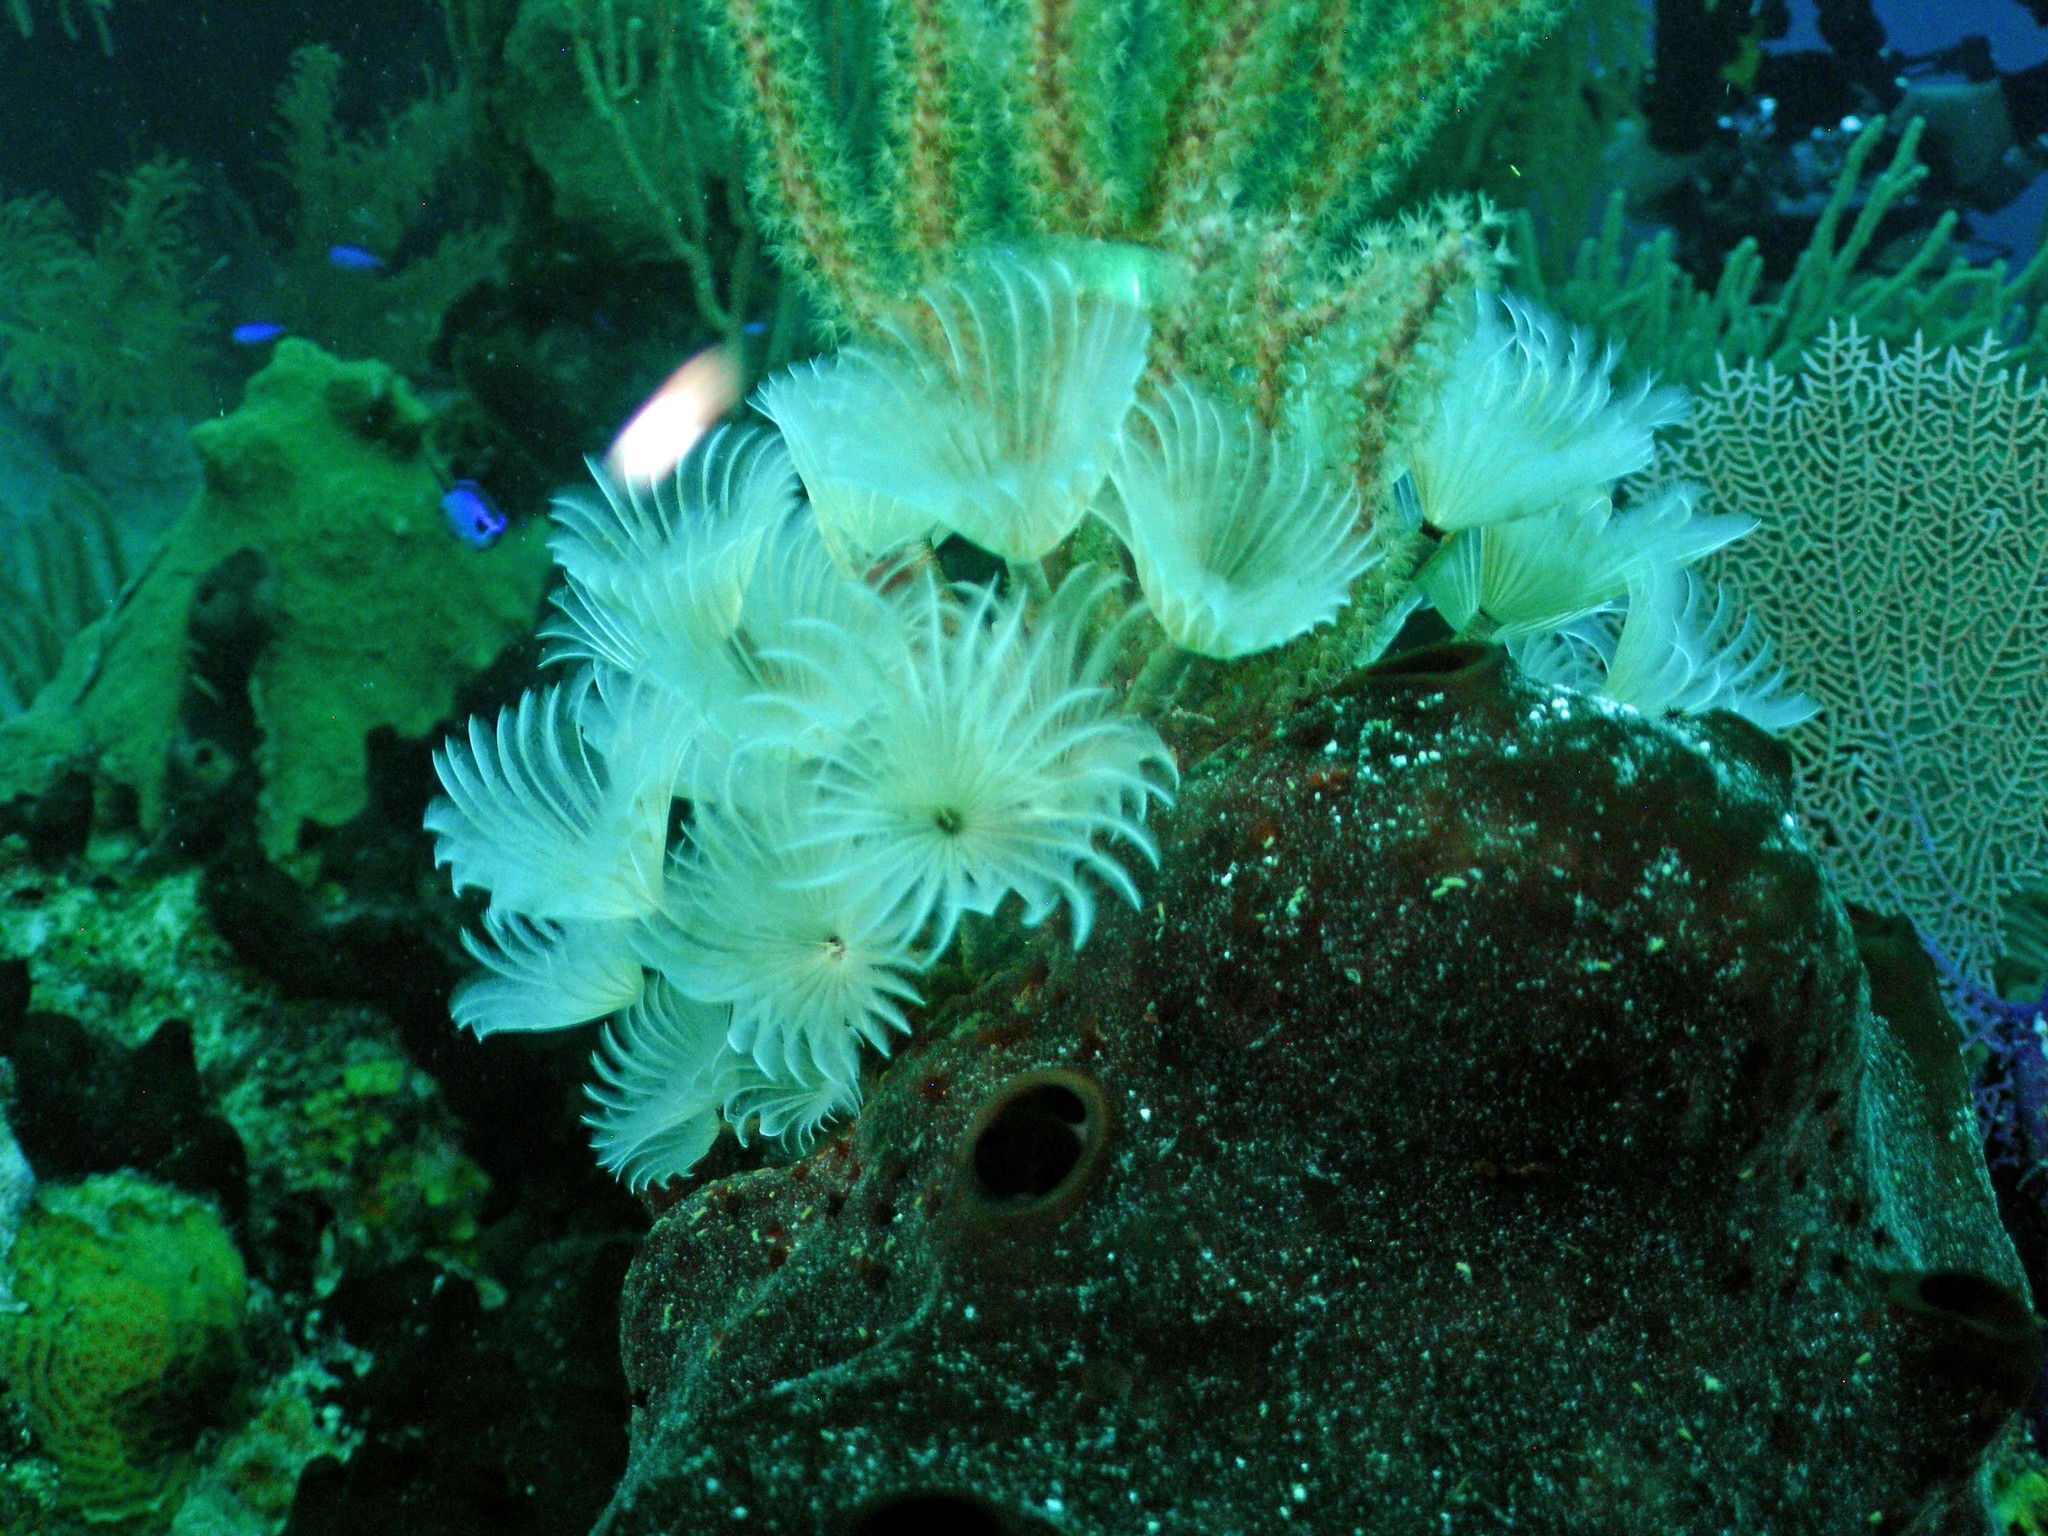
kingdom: Animalia
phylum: Annelida
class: Polychaeta
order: Sabellida
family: Sabellidae
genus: Bispira
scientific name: Bispira brunnea
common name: Social feather duster
